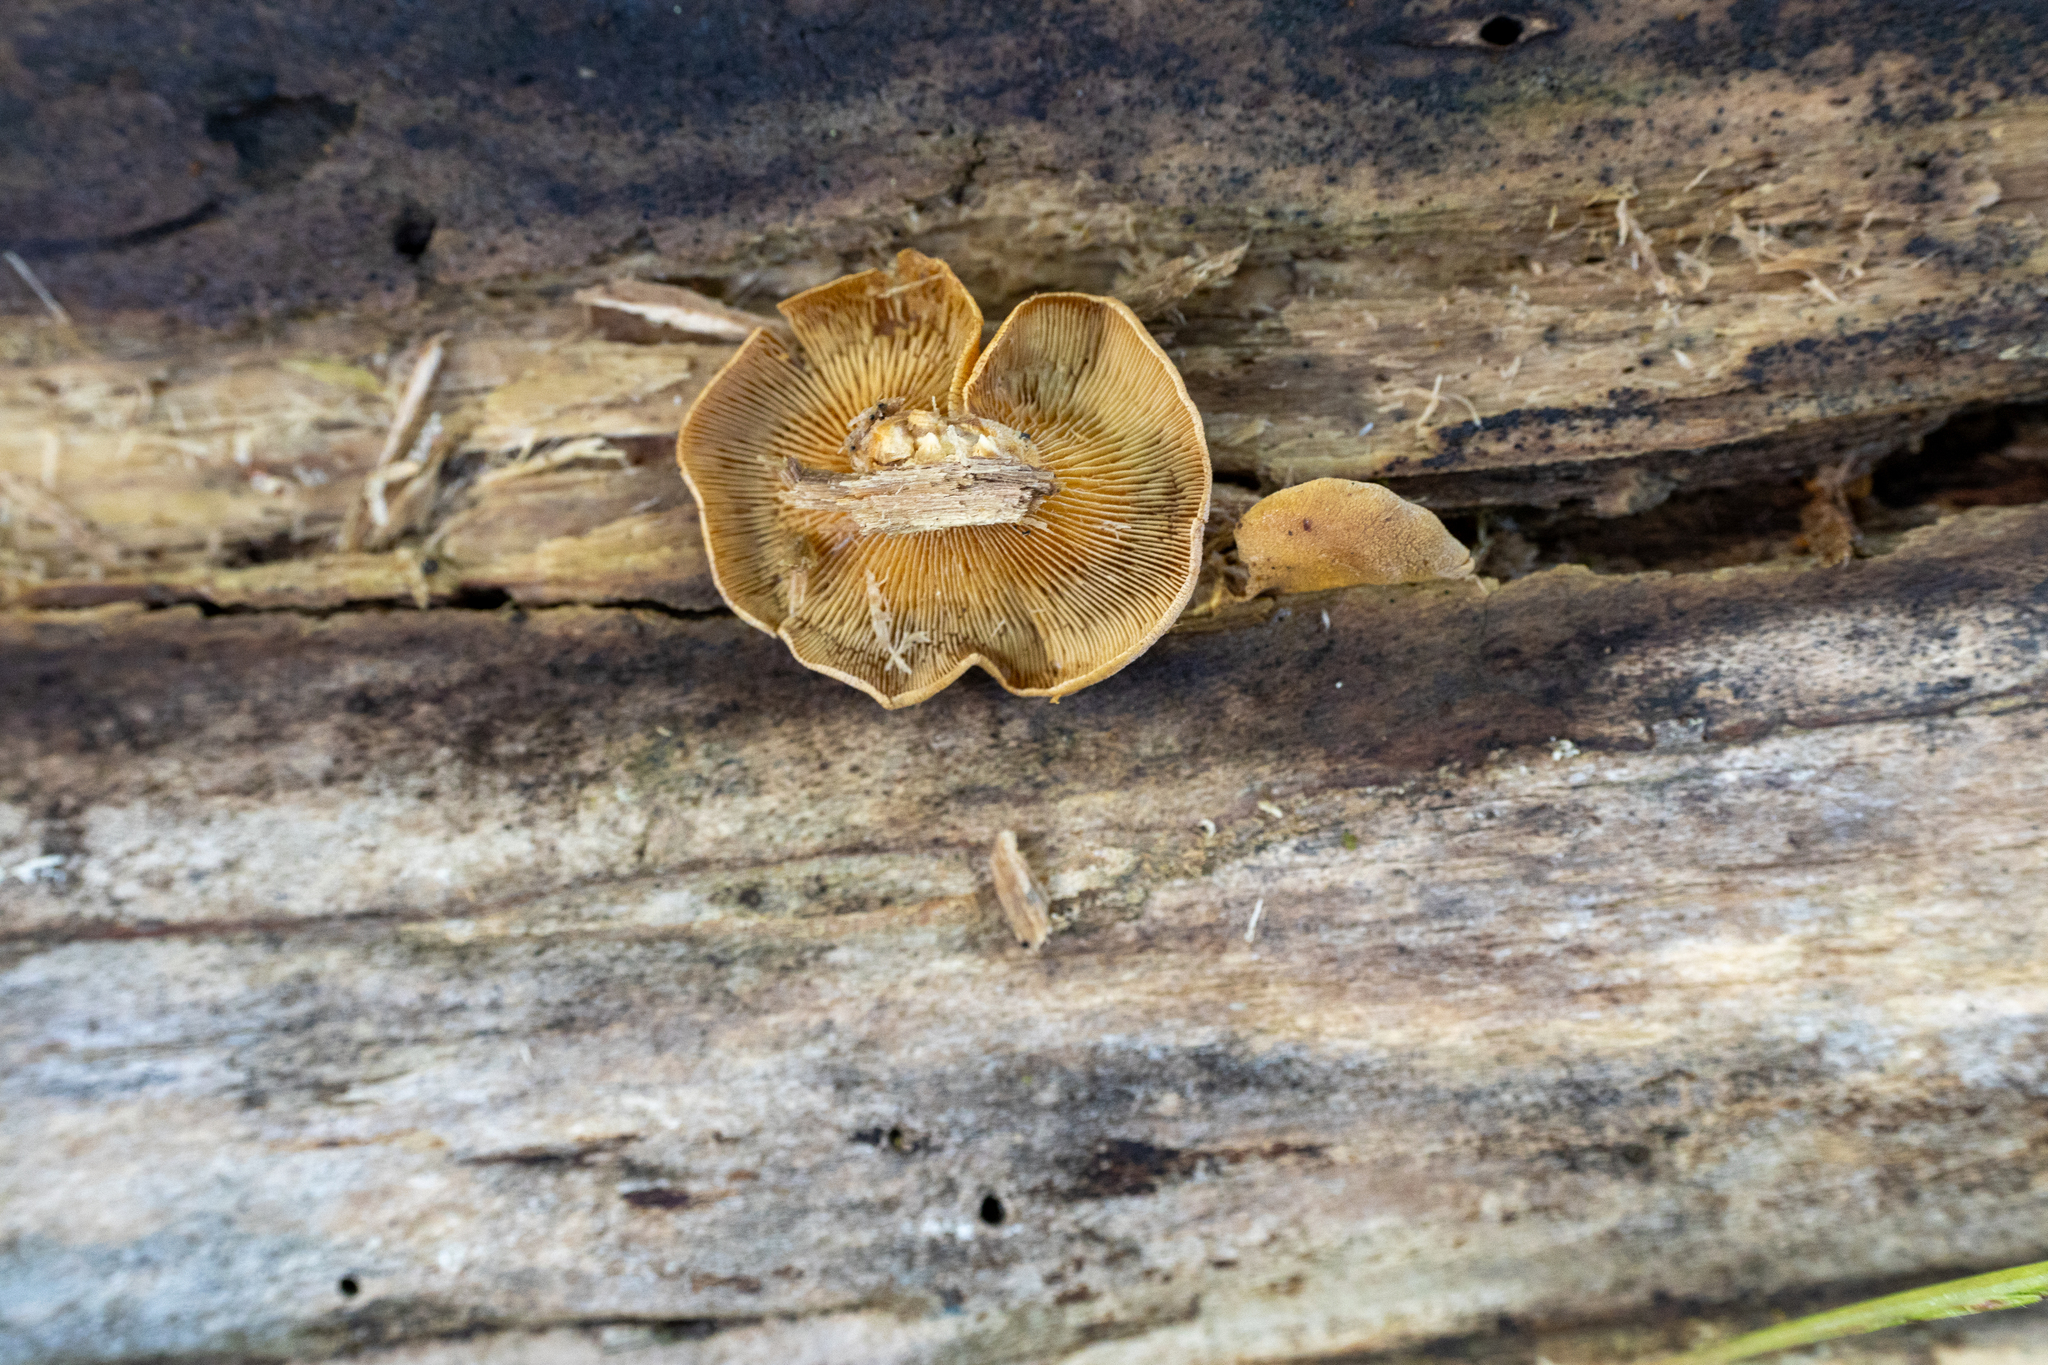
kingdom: Fungi
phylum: Basidiomycota
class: Agaricomycetes
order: Agaricales
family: Mycenaceae
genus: Panellus
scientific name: Panellus stipticus
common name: Bitter oysterling
